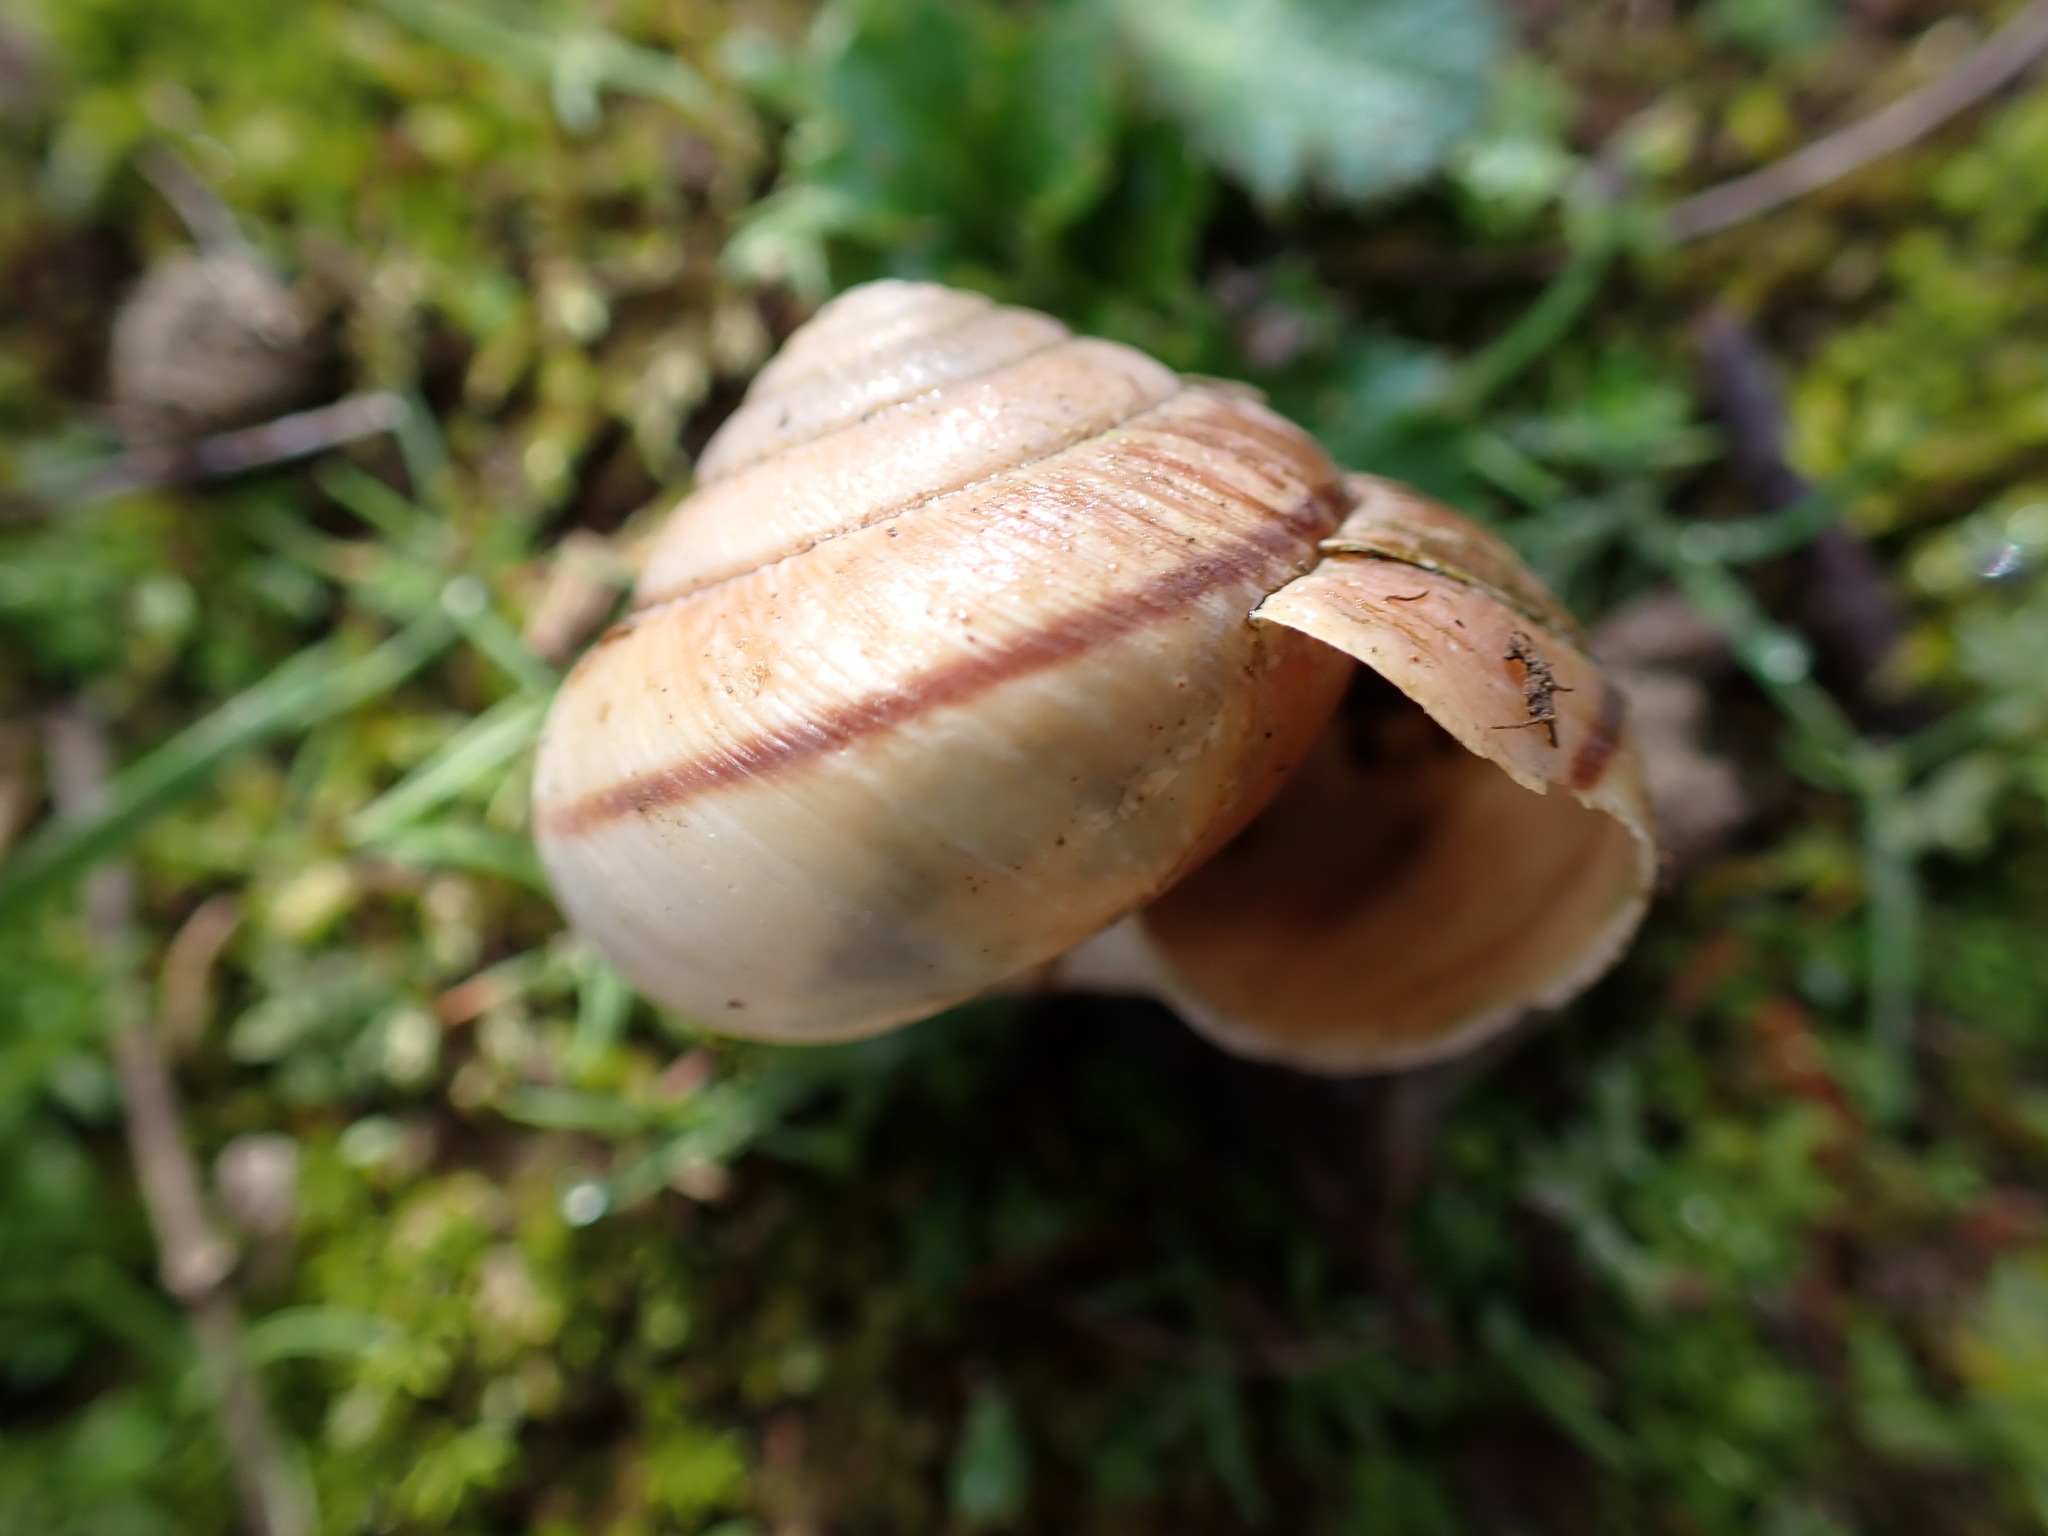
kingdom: Animalia
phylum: Mollusca
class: Gastropoda
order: Stylommatophora
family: Xanthonychidae
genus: Helminthoglypta
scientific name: Helminthoglypta arrosa
